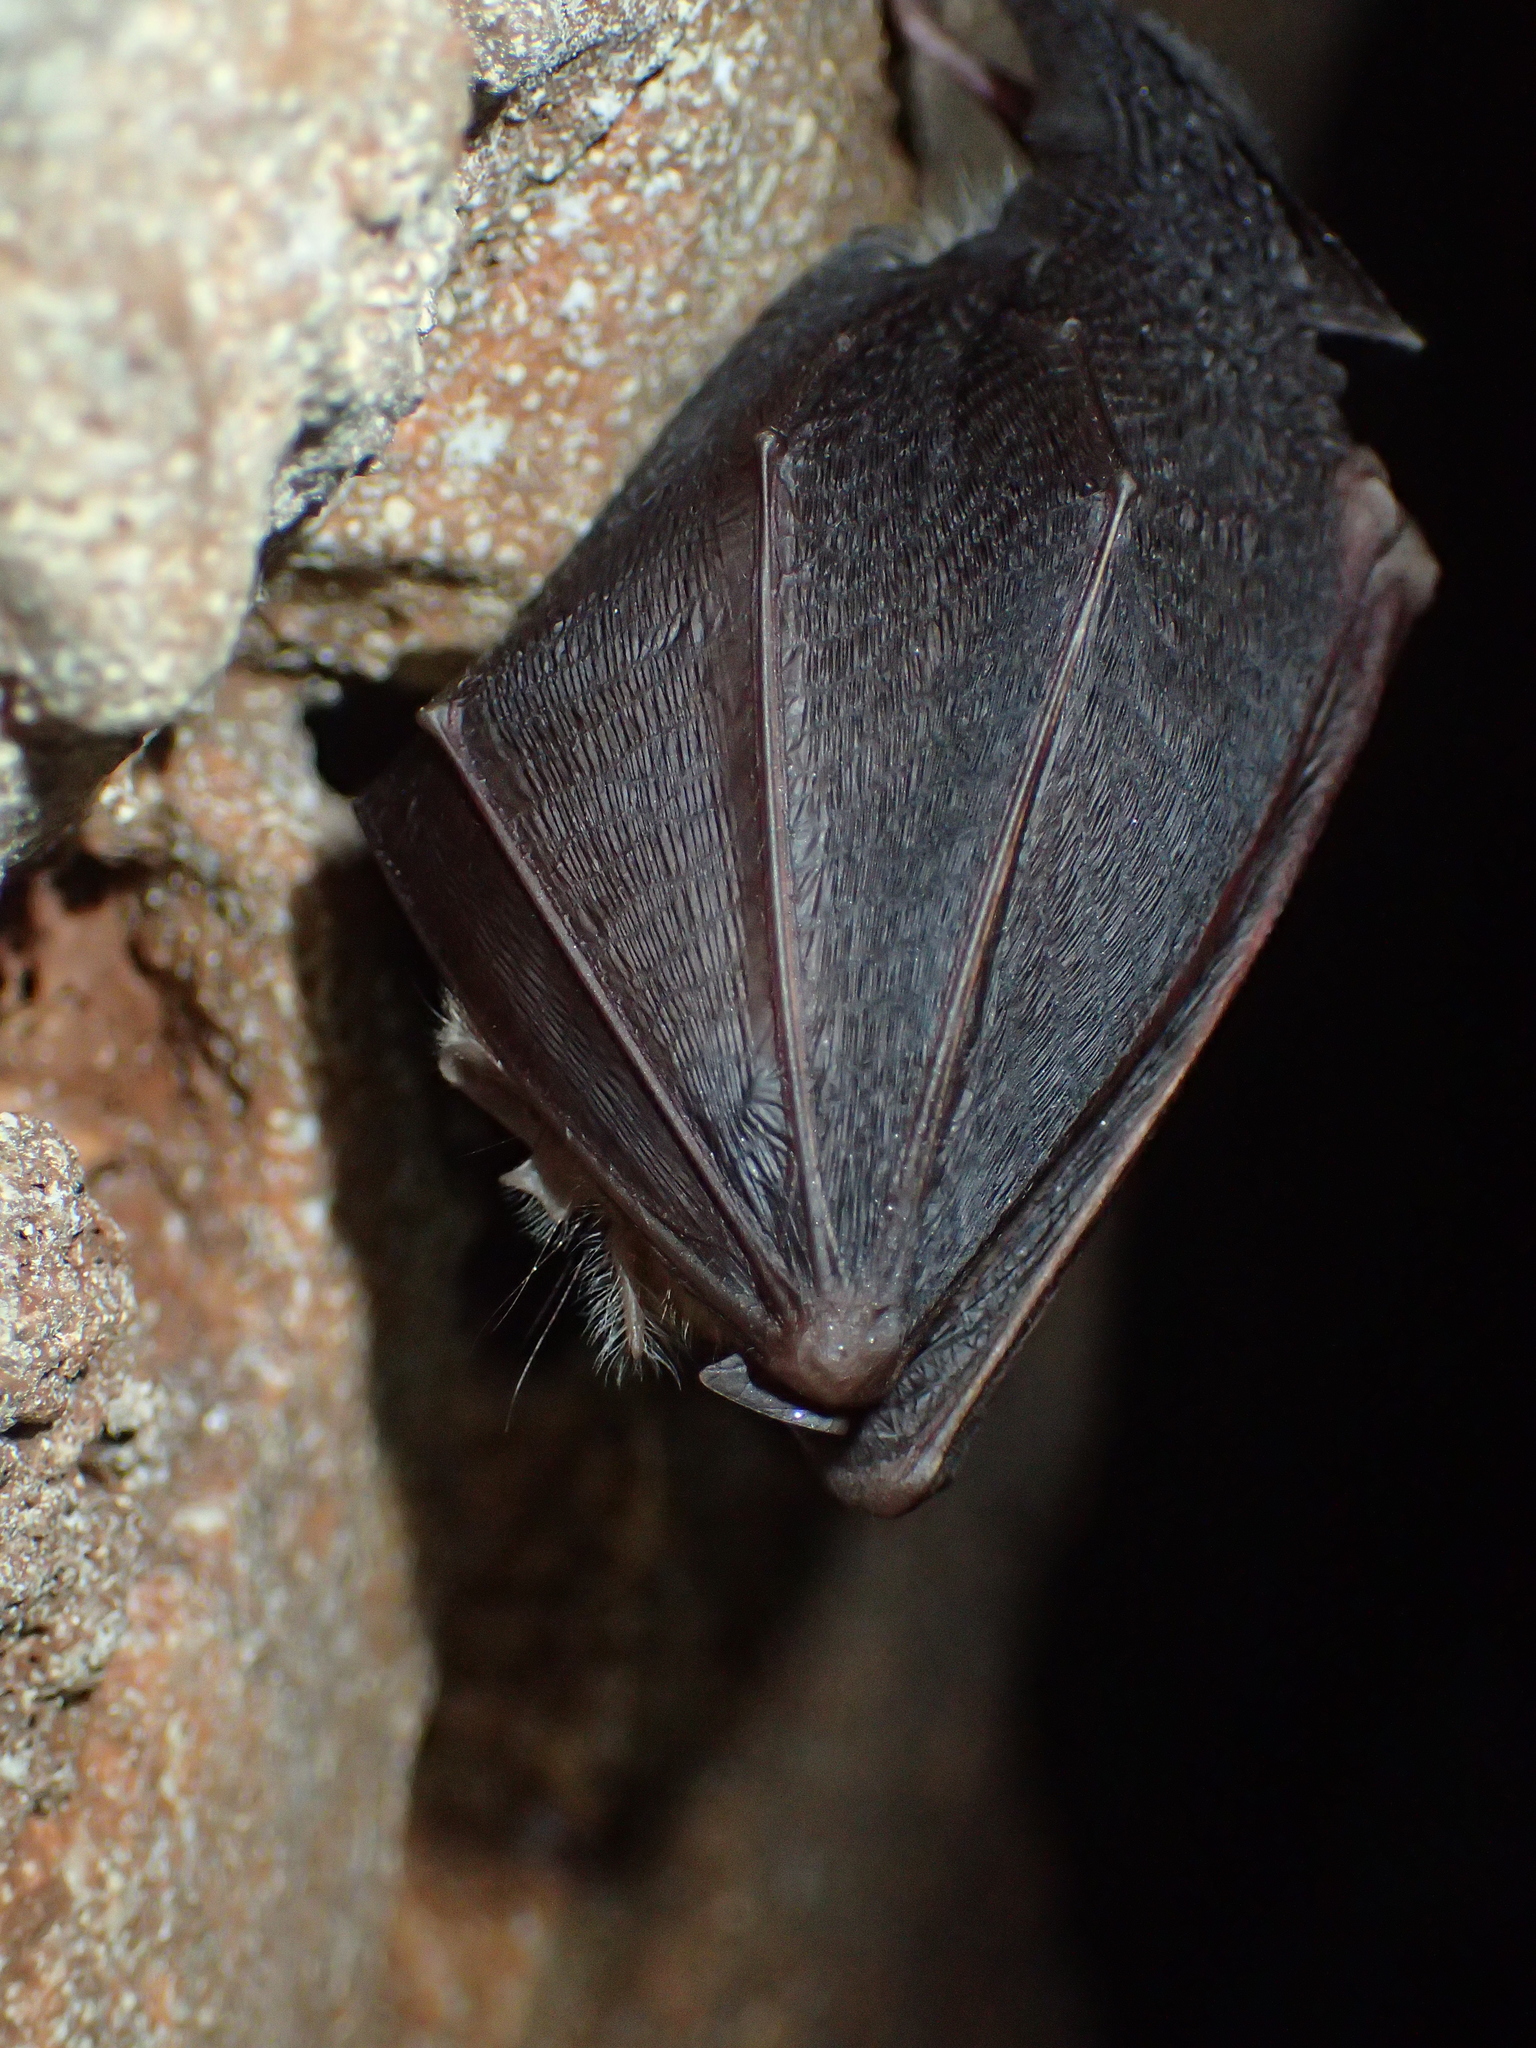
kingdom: Animalia
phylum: Chordata
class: Mammalia
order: Chiroptera
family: Rhinolophidae
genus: Rhinolophus
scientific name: Rhinolophus hipposideros
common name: Lesser horseshoe bat
